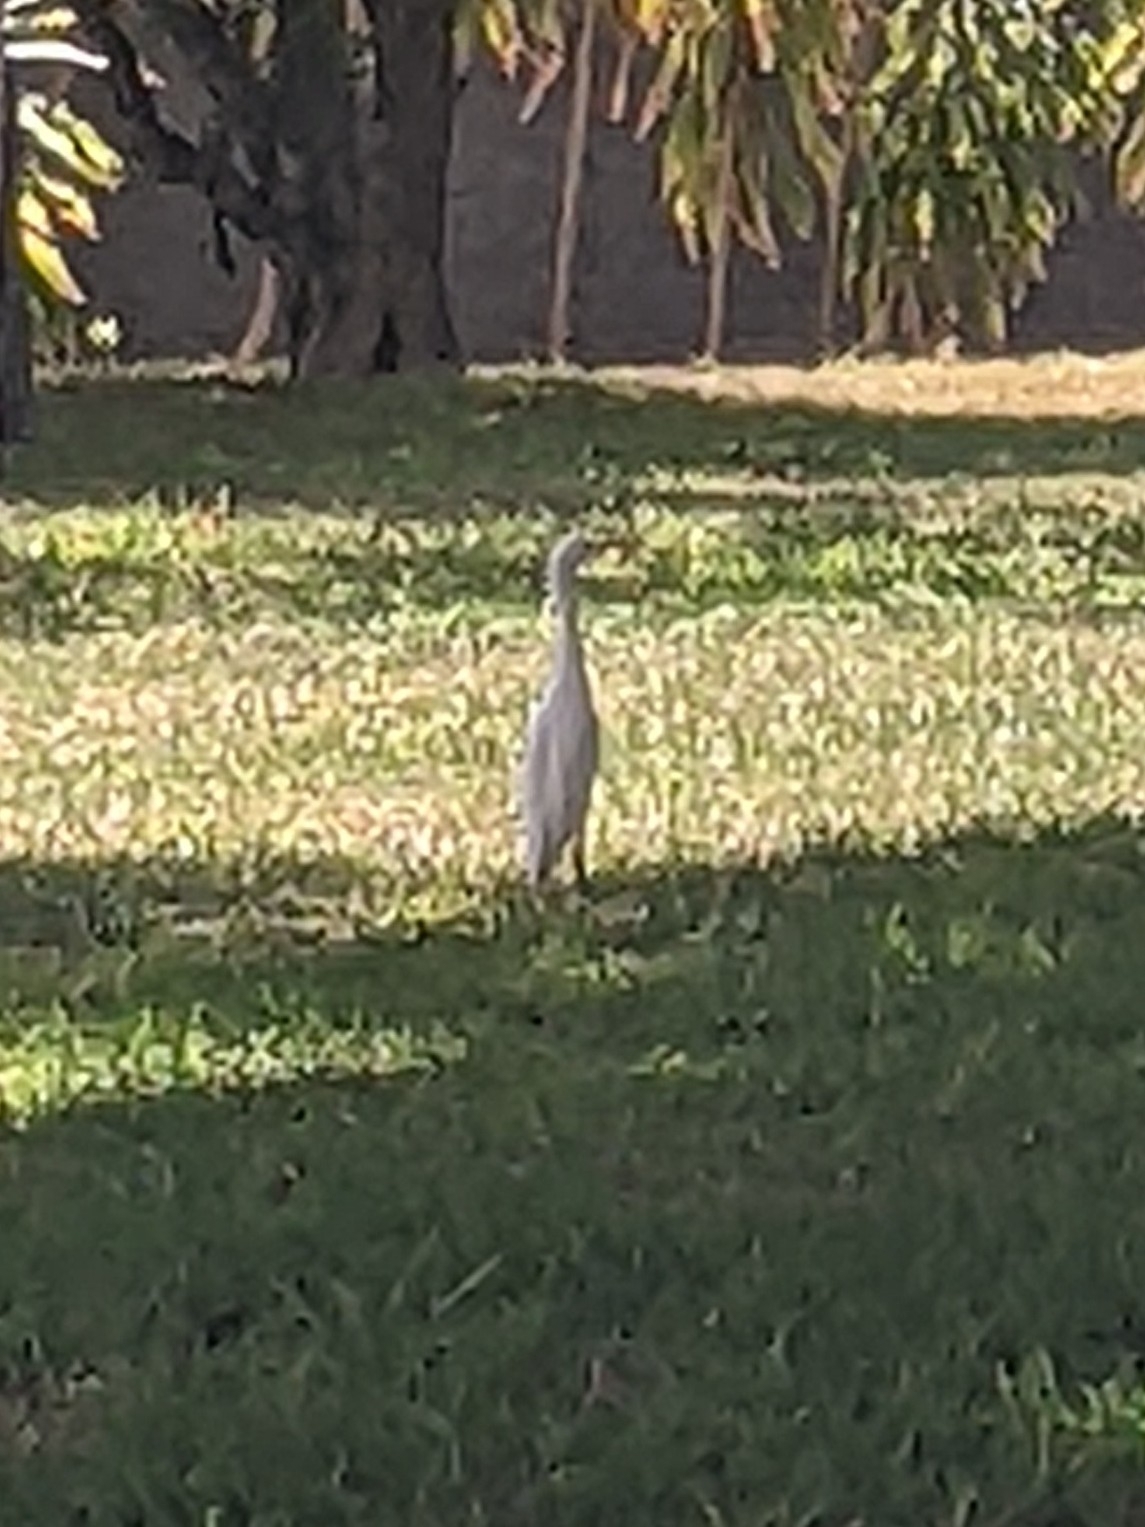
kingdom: Animalia
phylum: Chordata
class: Aves
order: Pelecaniformes
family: Ardeidae
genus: Bubulcus
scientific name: Bubulcus ibis
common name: Cattle egret
